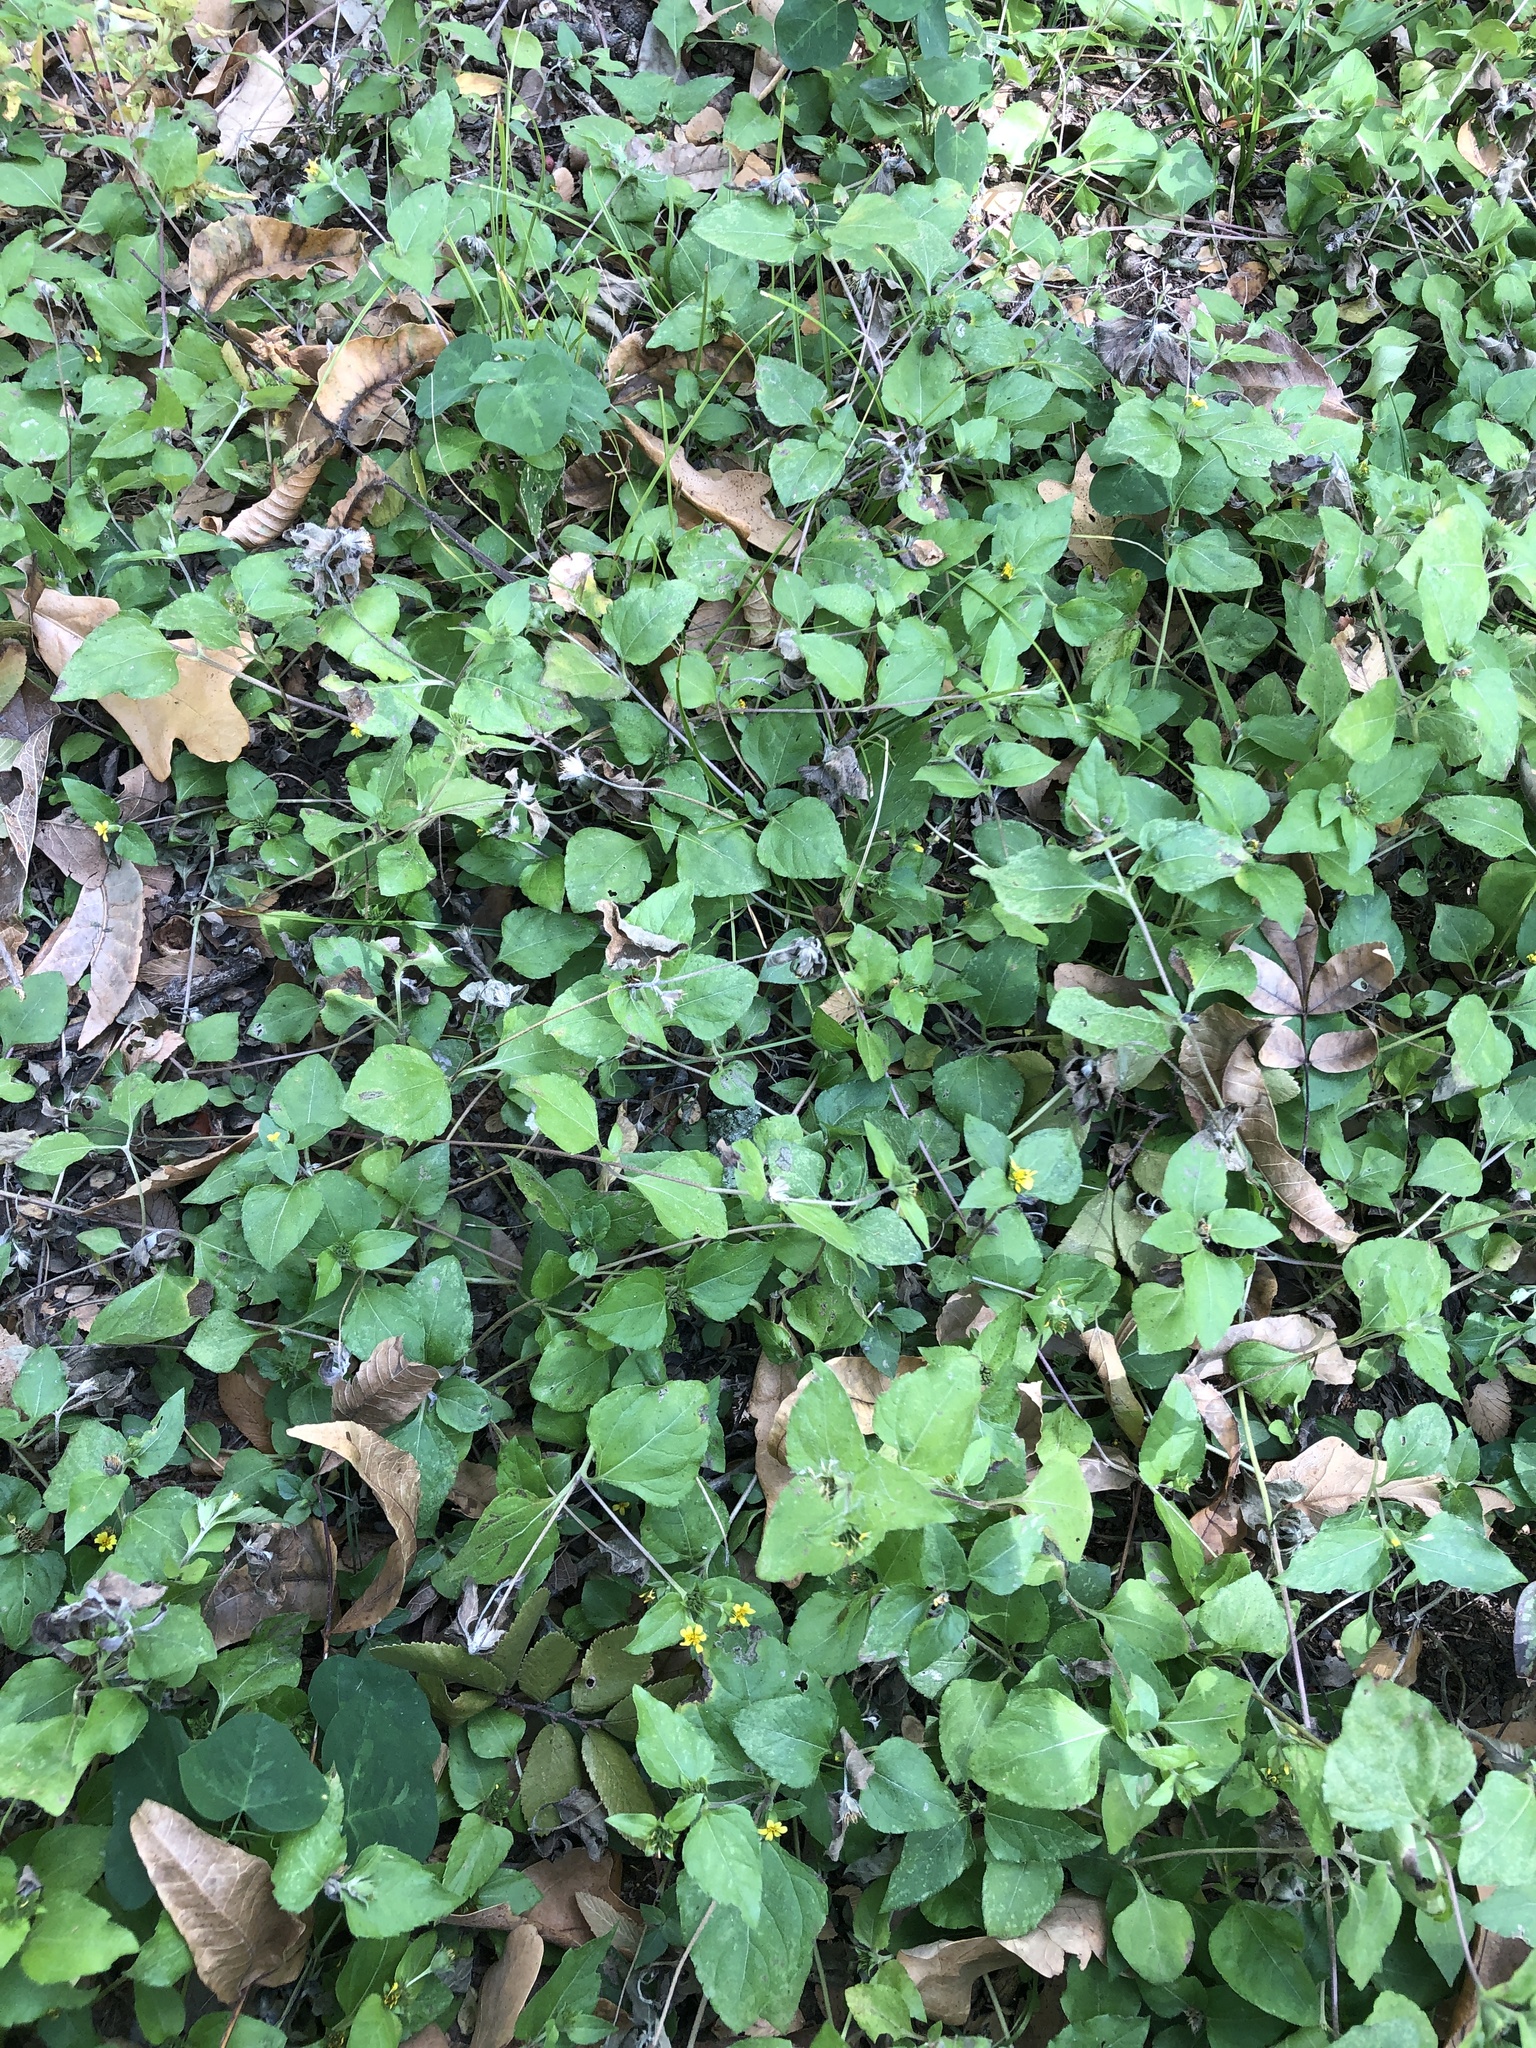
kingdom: Plantae
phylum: Tracheophyta
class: Magnoliopsida
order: Asterales
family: Asteraceae
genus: Calyptocarpus
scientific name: Calyptocarpus vialis
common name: Straggler daisy
